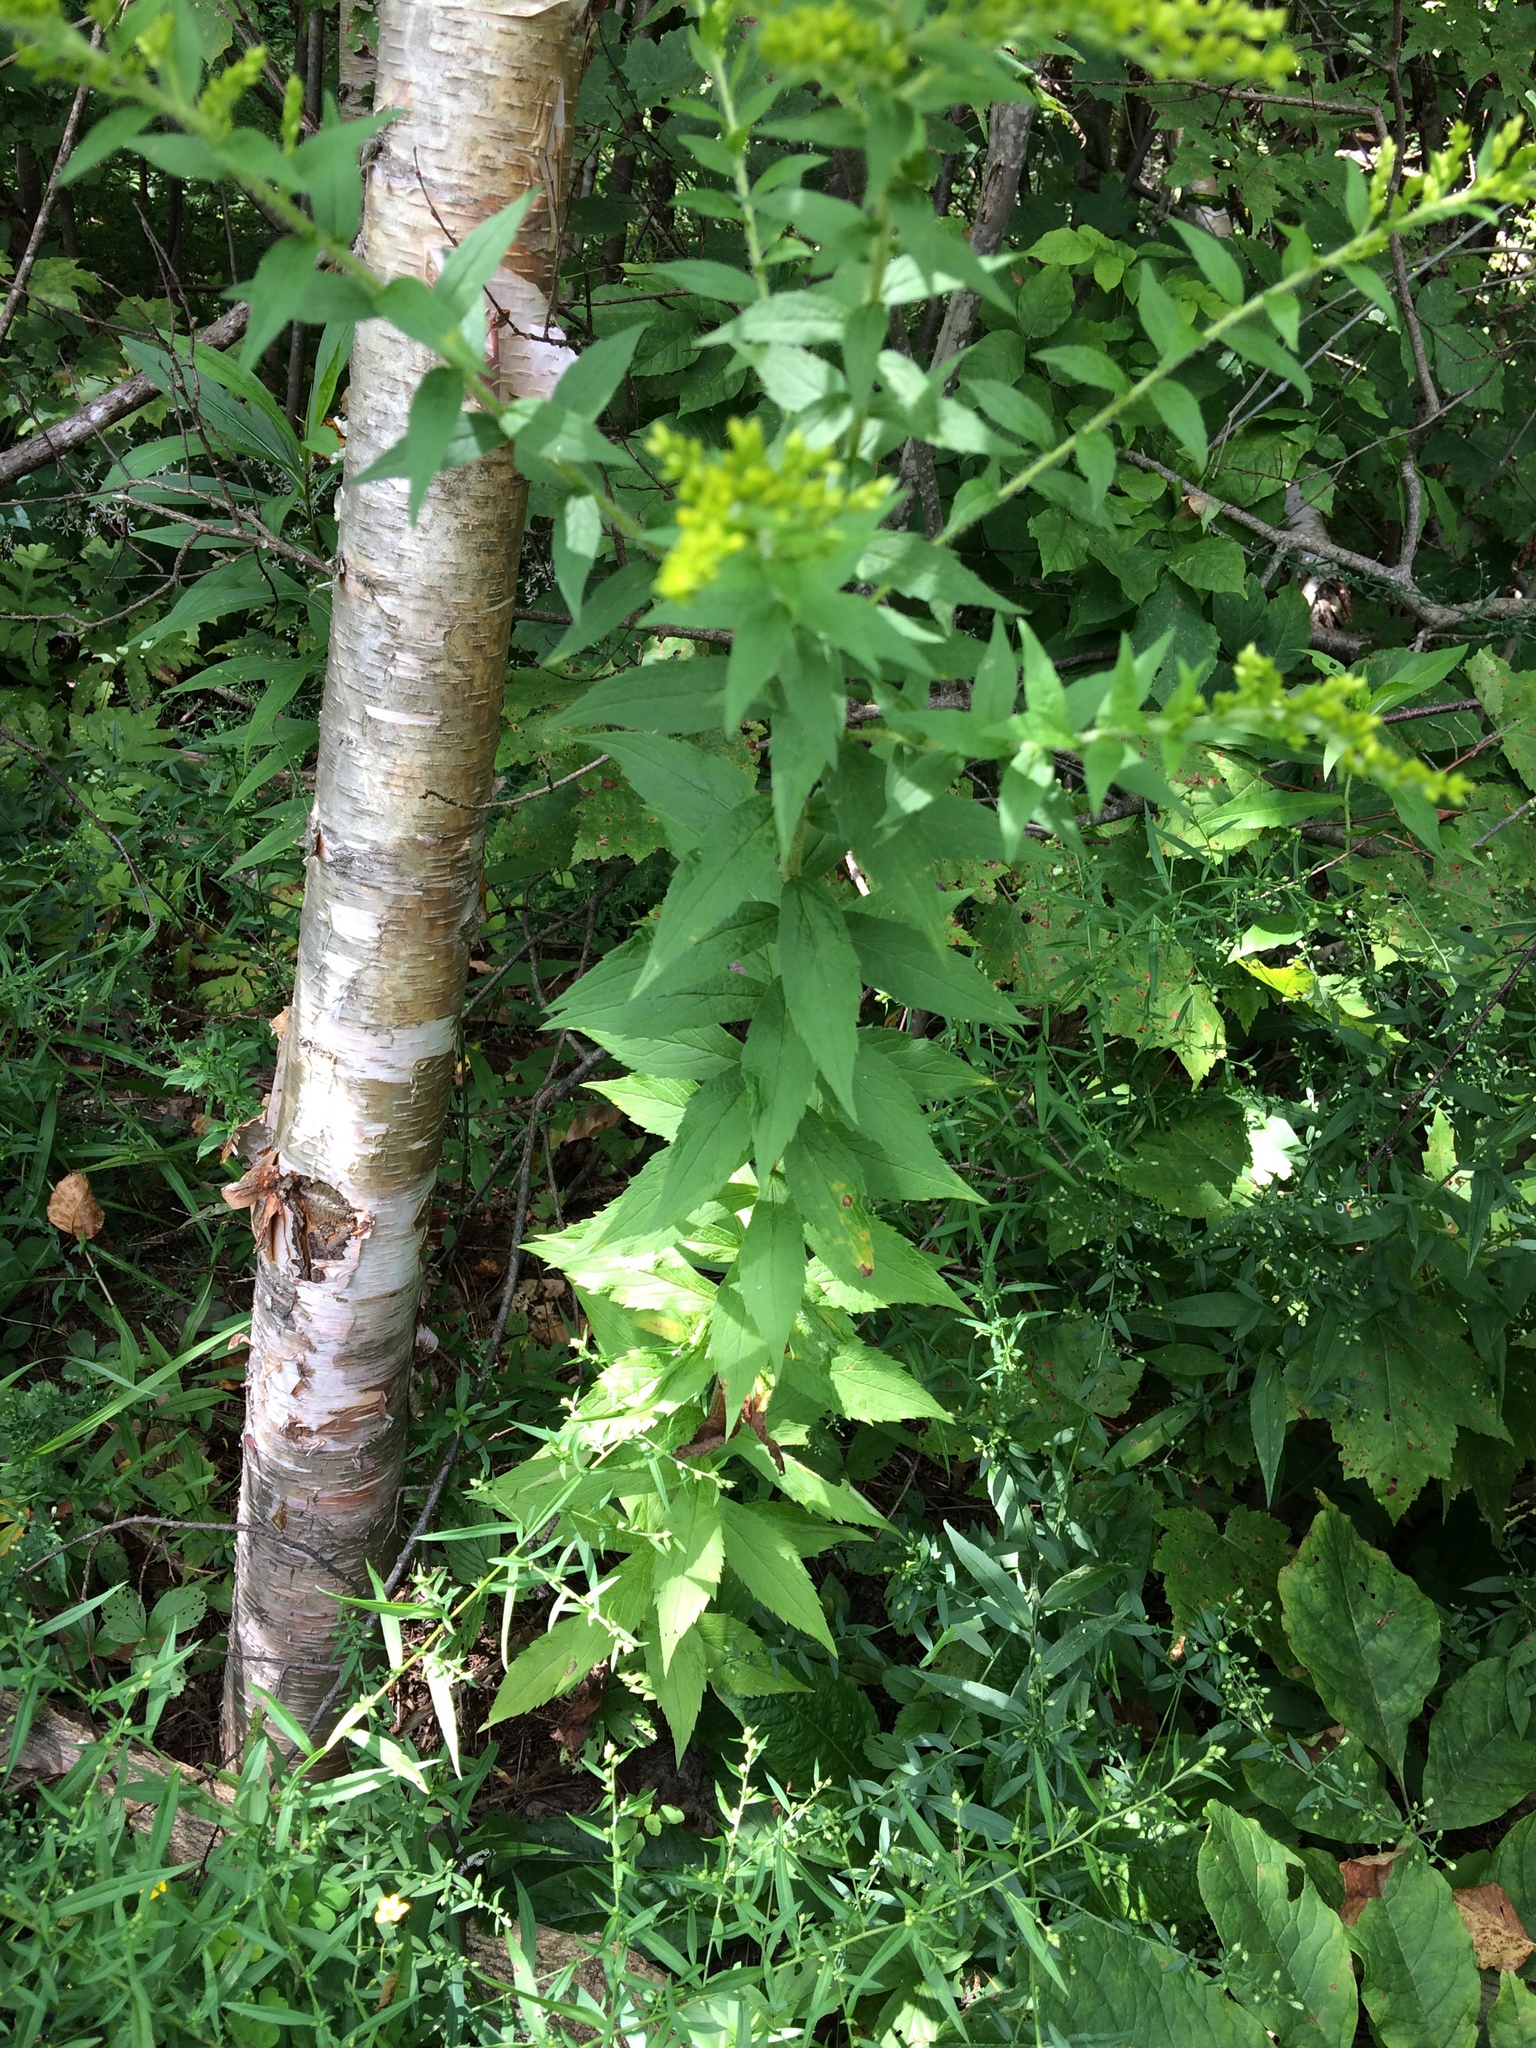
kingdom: Plantae
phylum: Tracheophyta
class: Magnoliopsida
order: Asterales
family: Asteraceae
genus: Solidago
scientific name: Solidago rugosa
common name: Rough-stemmed goldenrod
